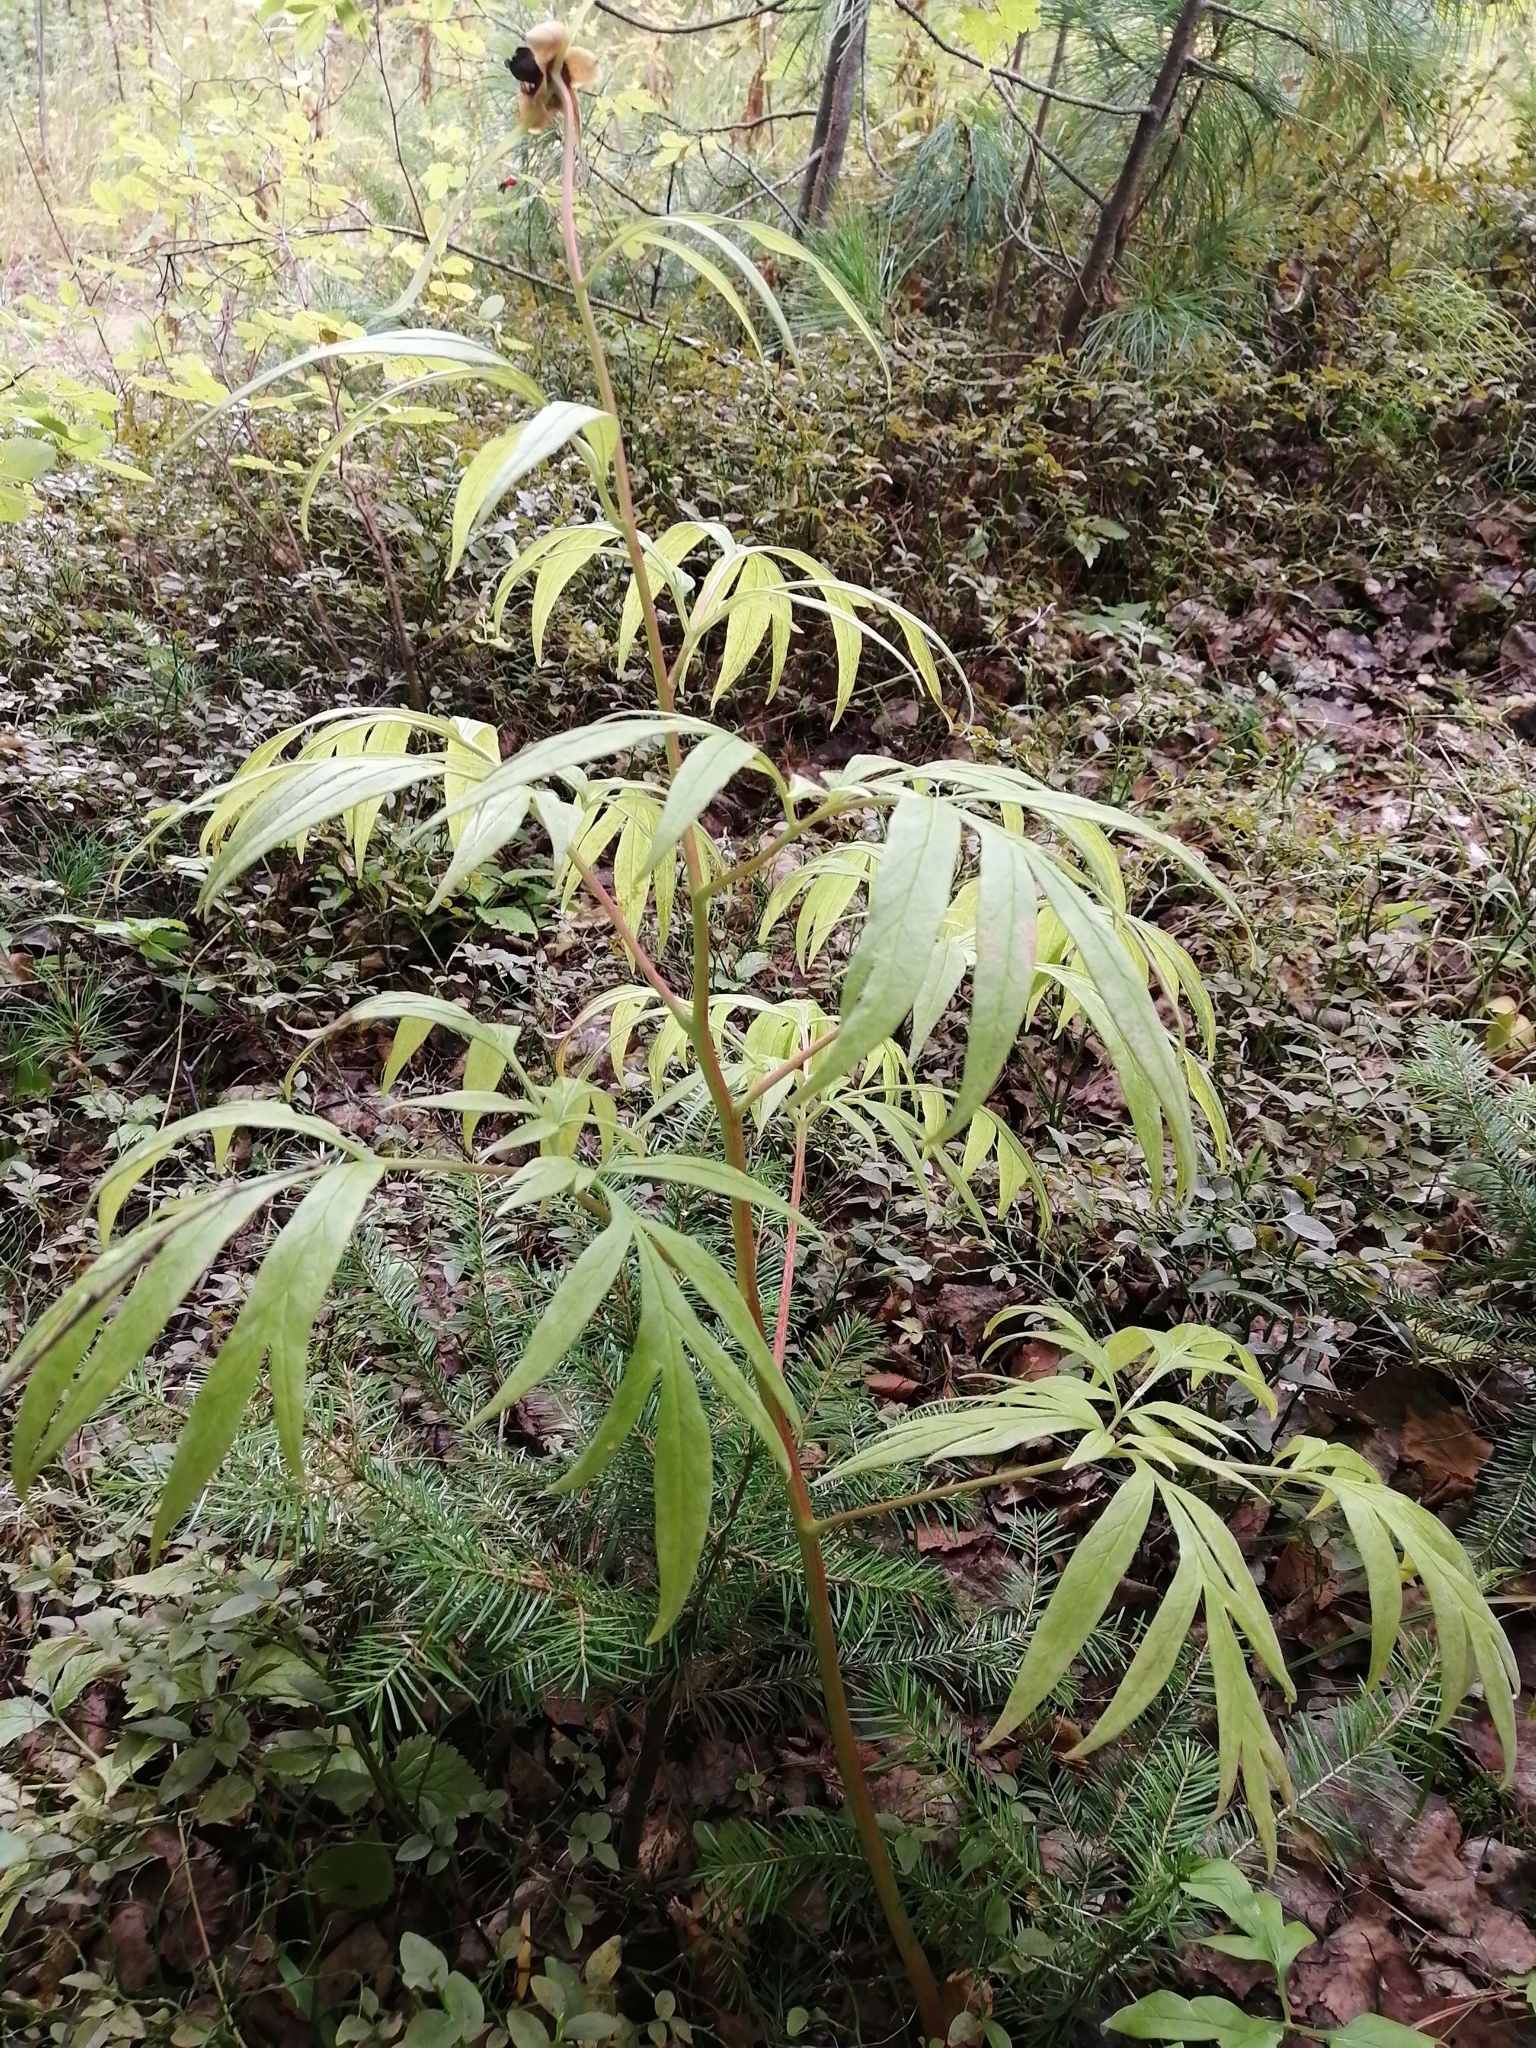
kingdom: Plantae
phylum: Tracheophyta
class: Magnoliopsida
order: Saxifragales
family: Paeoniaceae
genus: Paeonia
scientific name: Paeonia anomala
